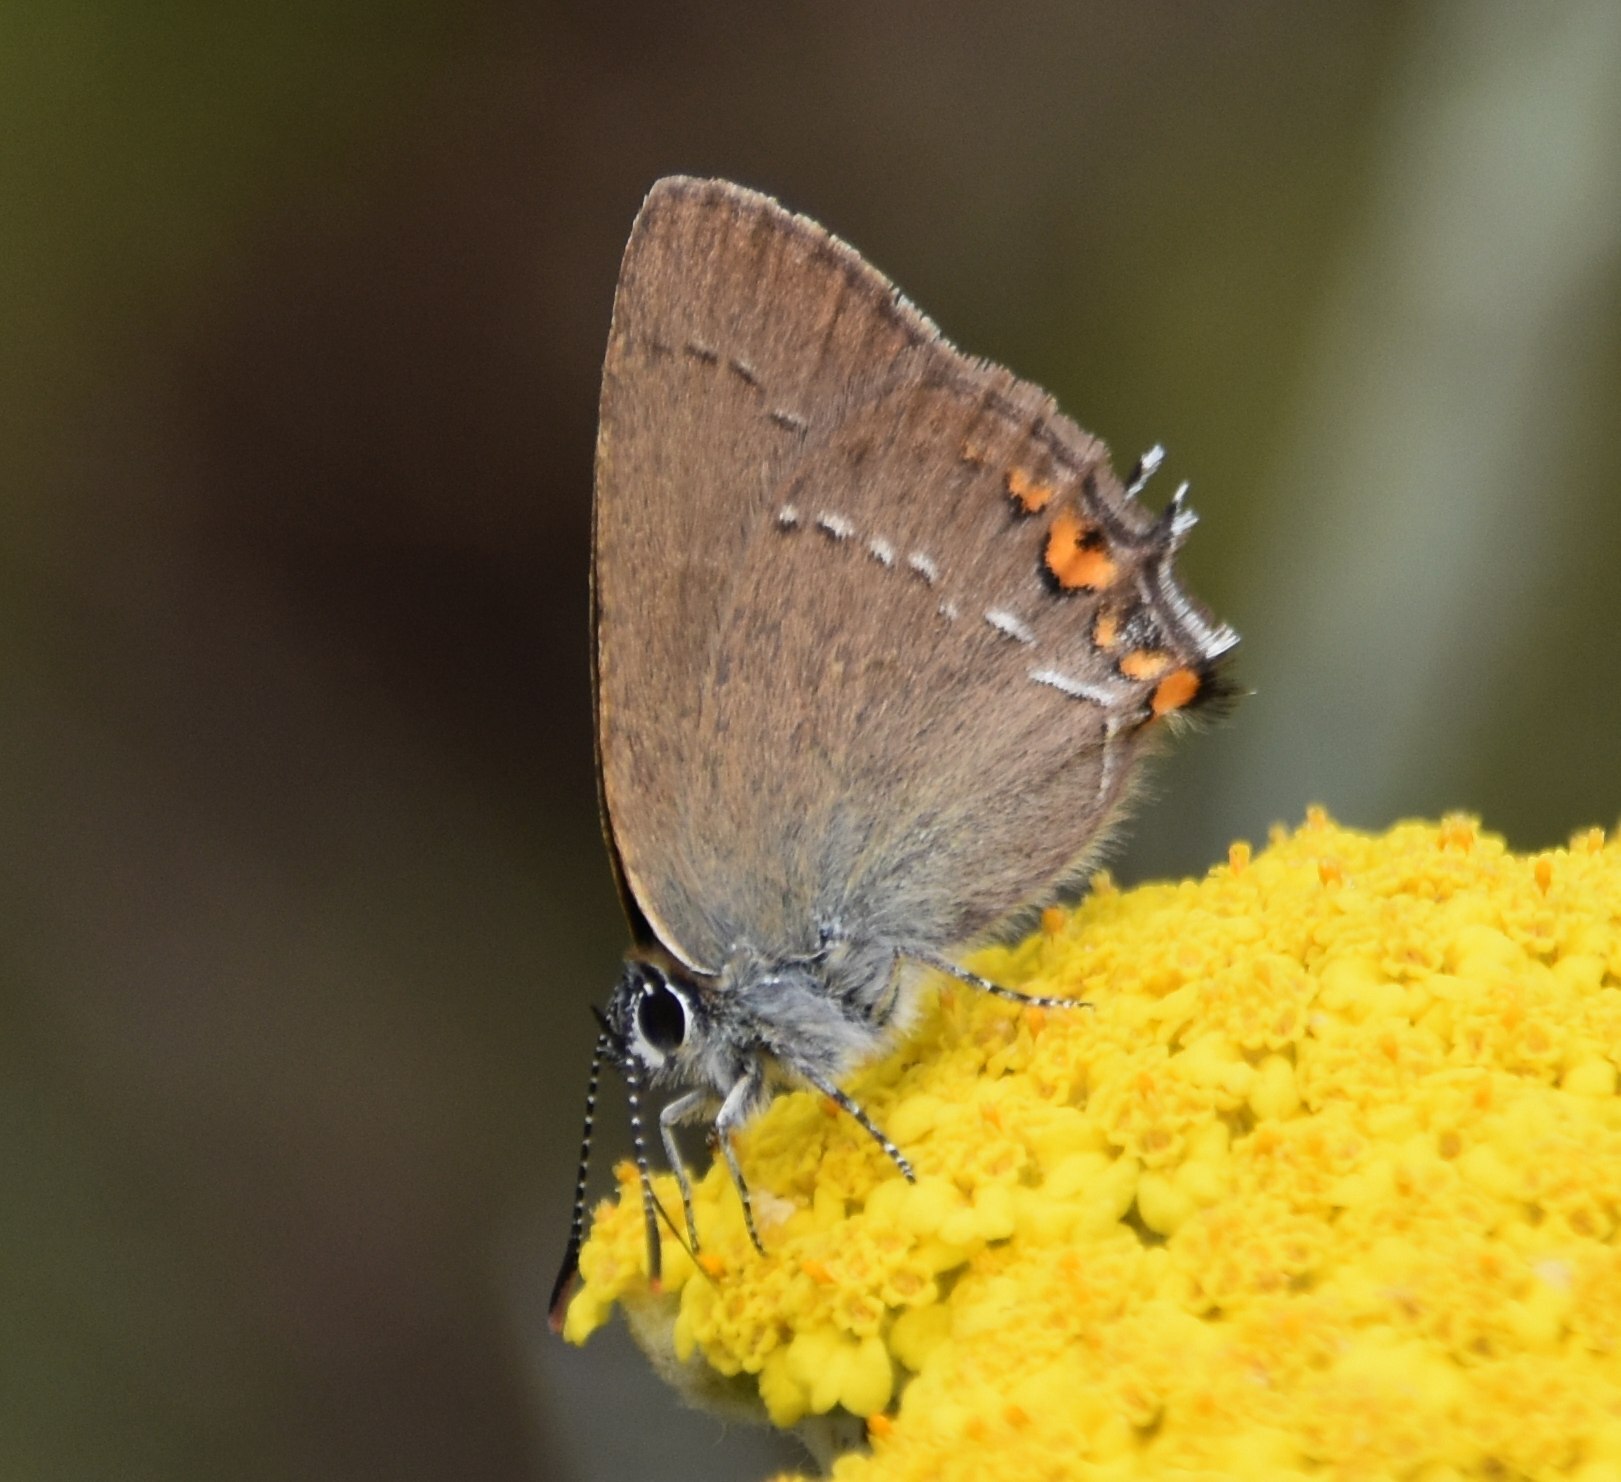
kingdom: Animalia
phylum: Arthropoda
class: Insecta
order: Lepidoptera
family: Lycaenidae
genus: Strymon
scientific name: Strymon acaciae
